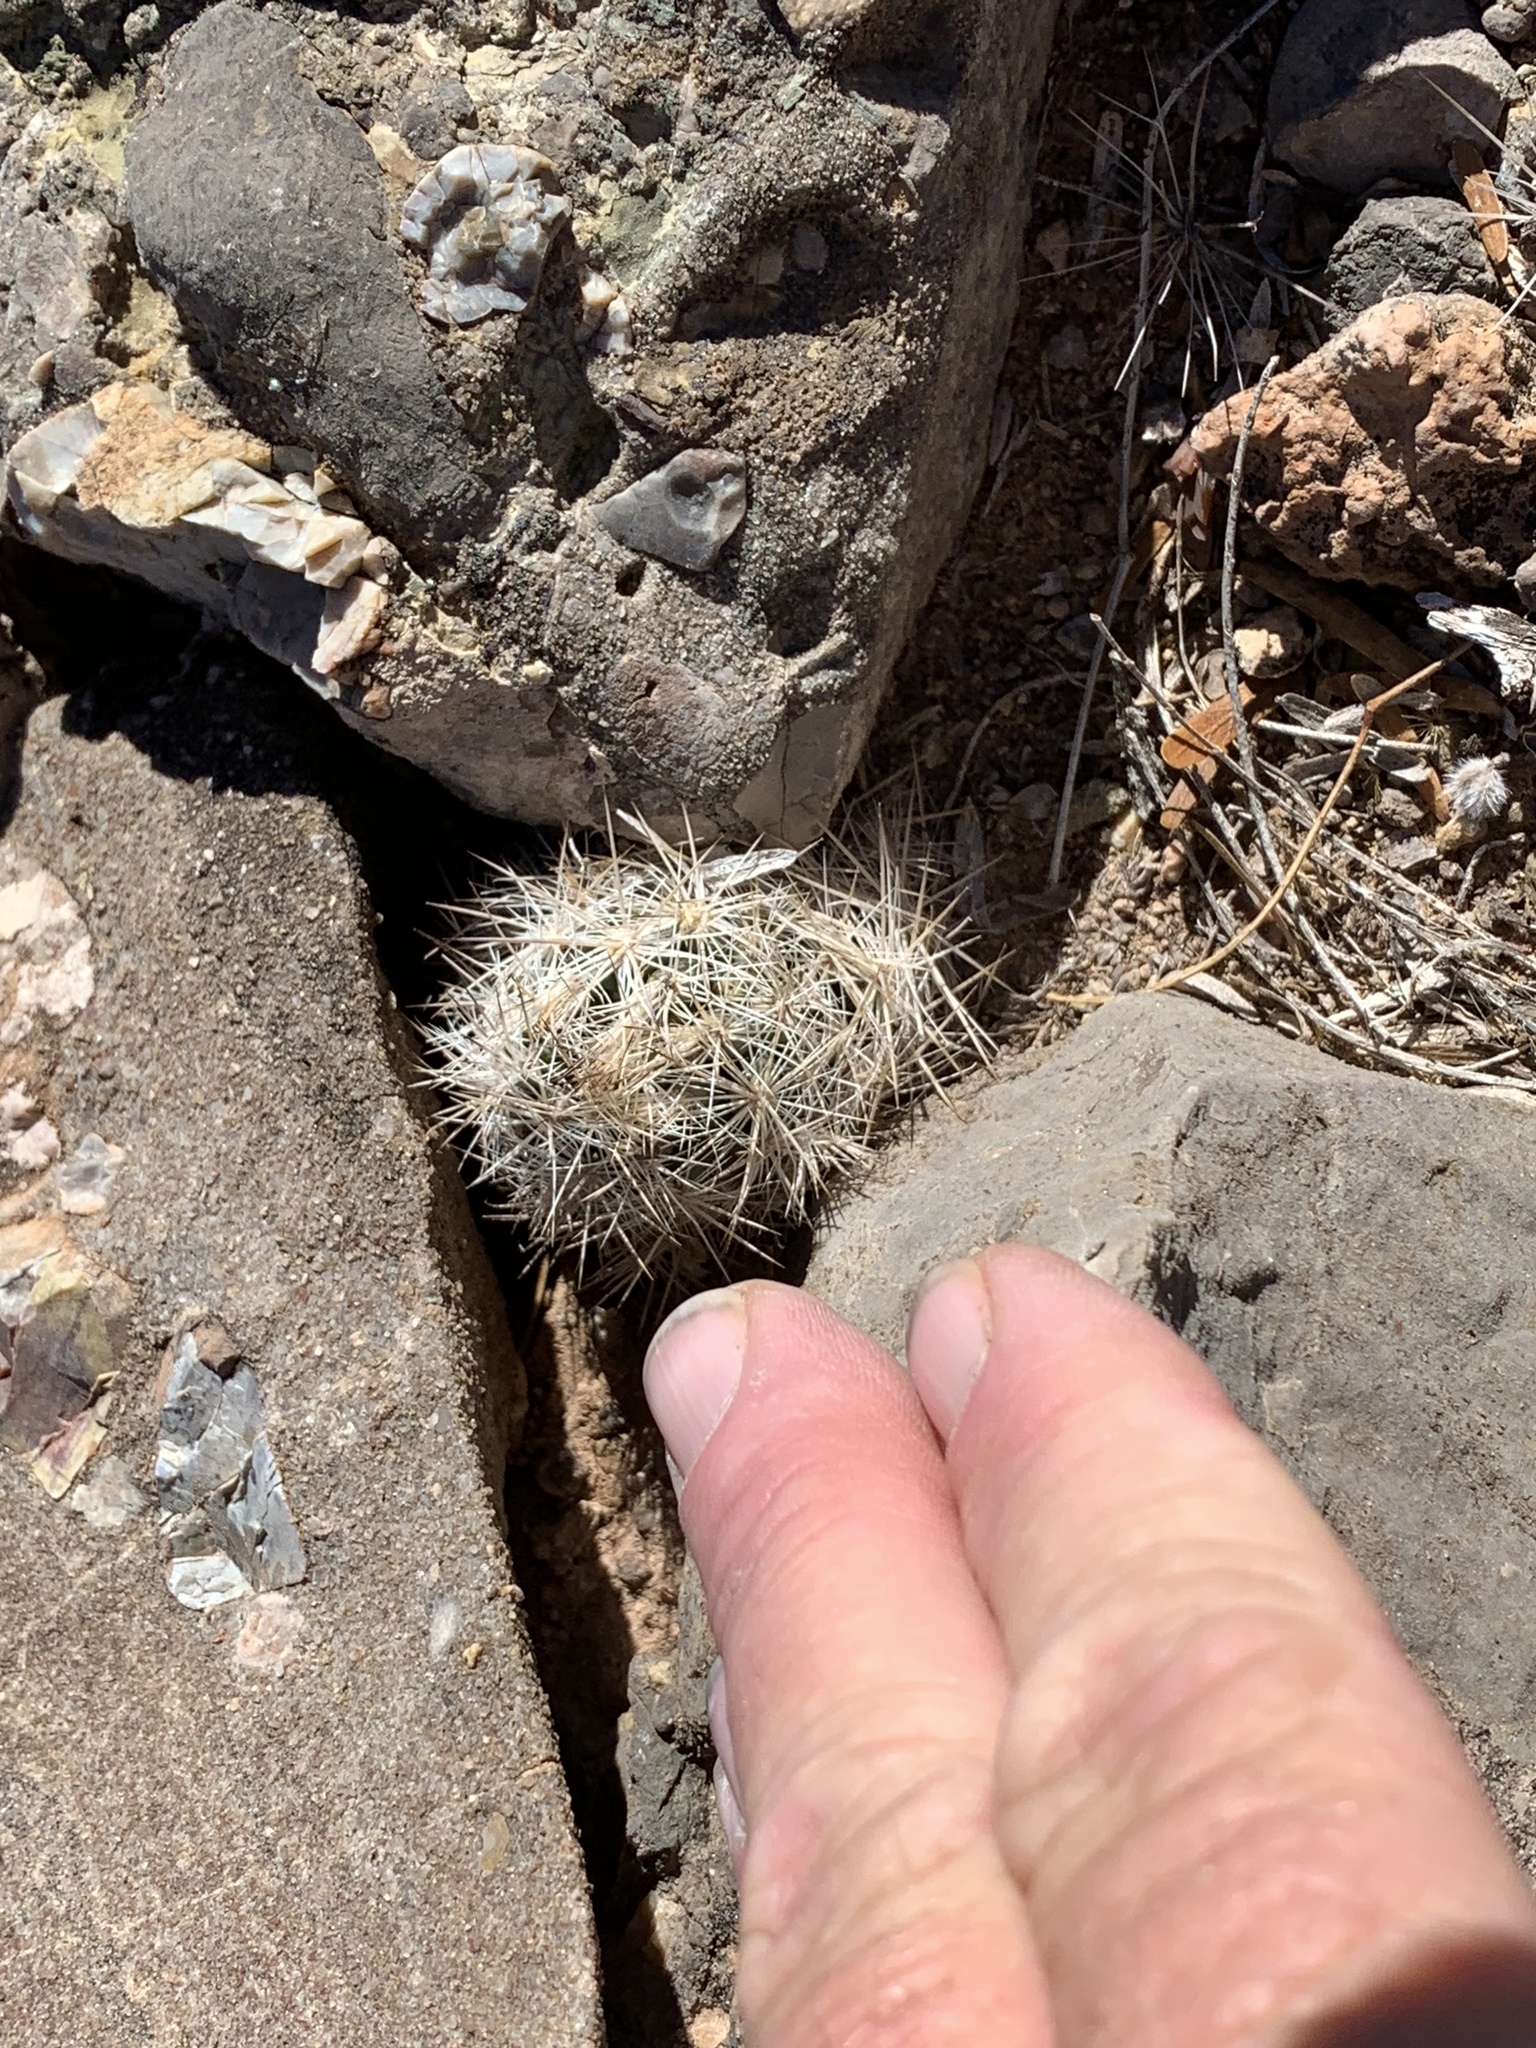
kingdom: Plantae
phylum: Tracheophyta
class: Magnoliopsida
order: Caryophyllales
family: Cactaceae
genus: Pelecyphora
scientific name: Pelecyphora tuberculosa
